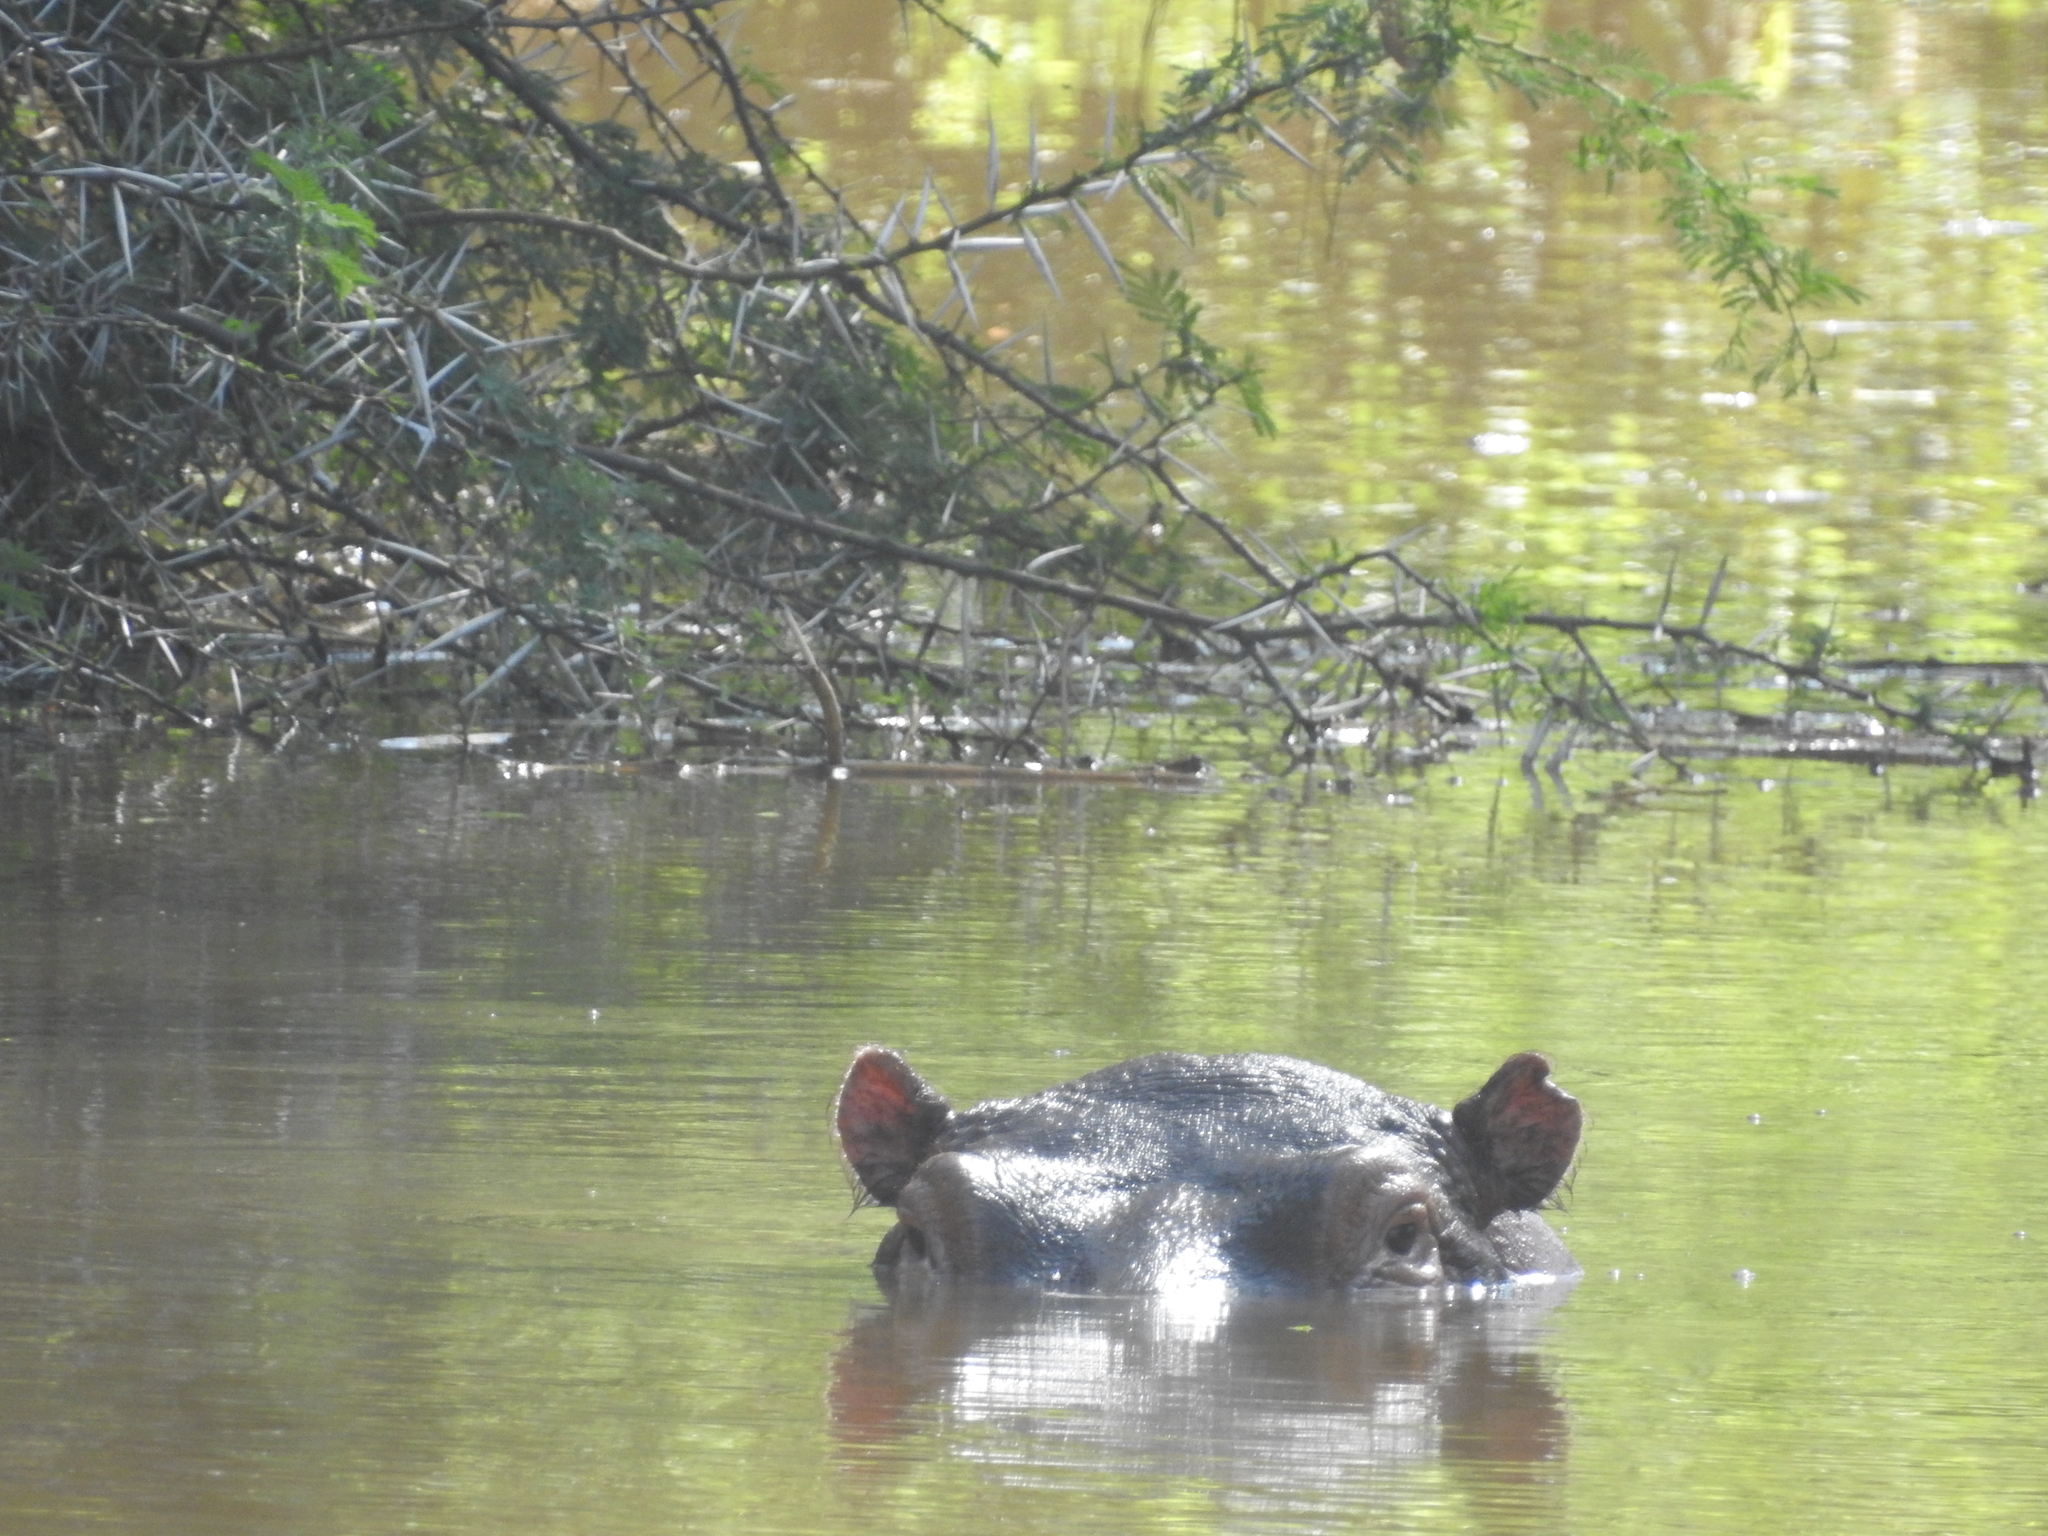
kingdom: Animalia
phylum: Chordata
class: Mammalia
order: Artiodactyla
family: Hippopotamidae
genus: Hippopotamus
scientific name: Hippopotamus amphibius
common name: Common hippopotamus
